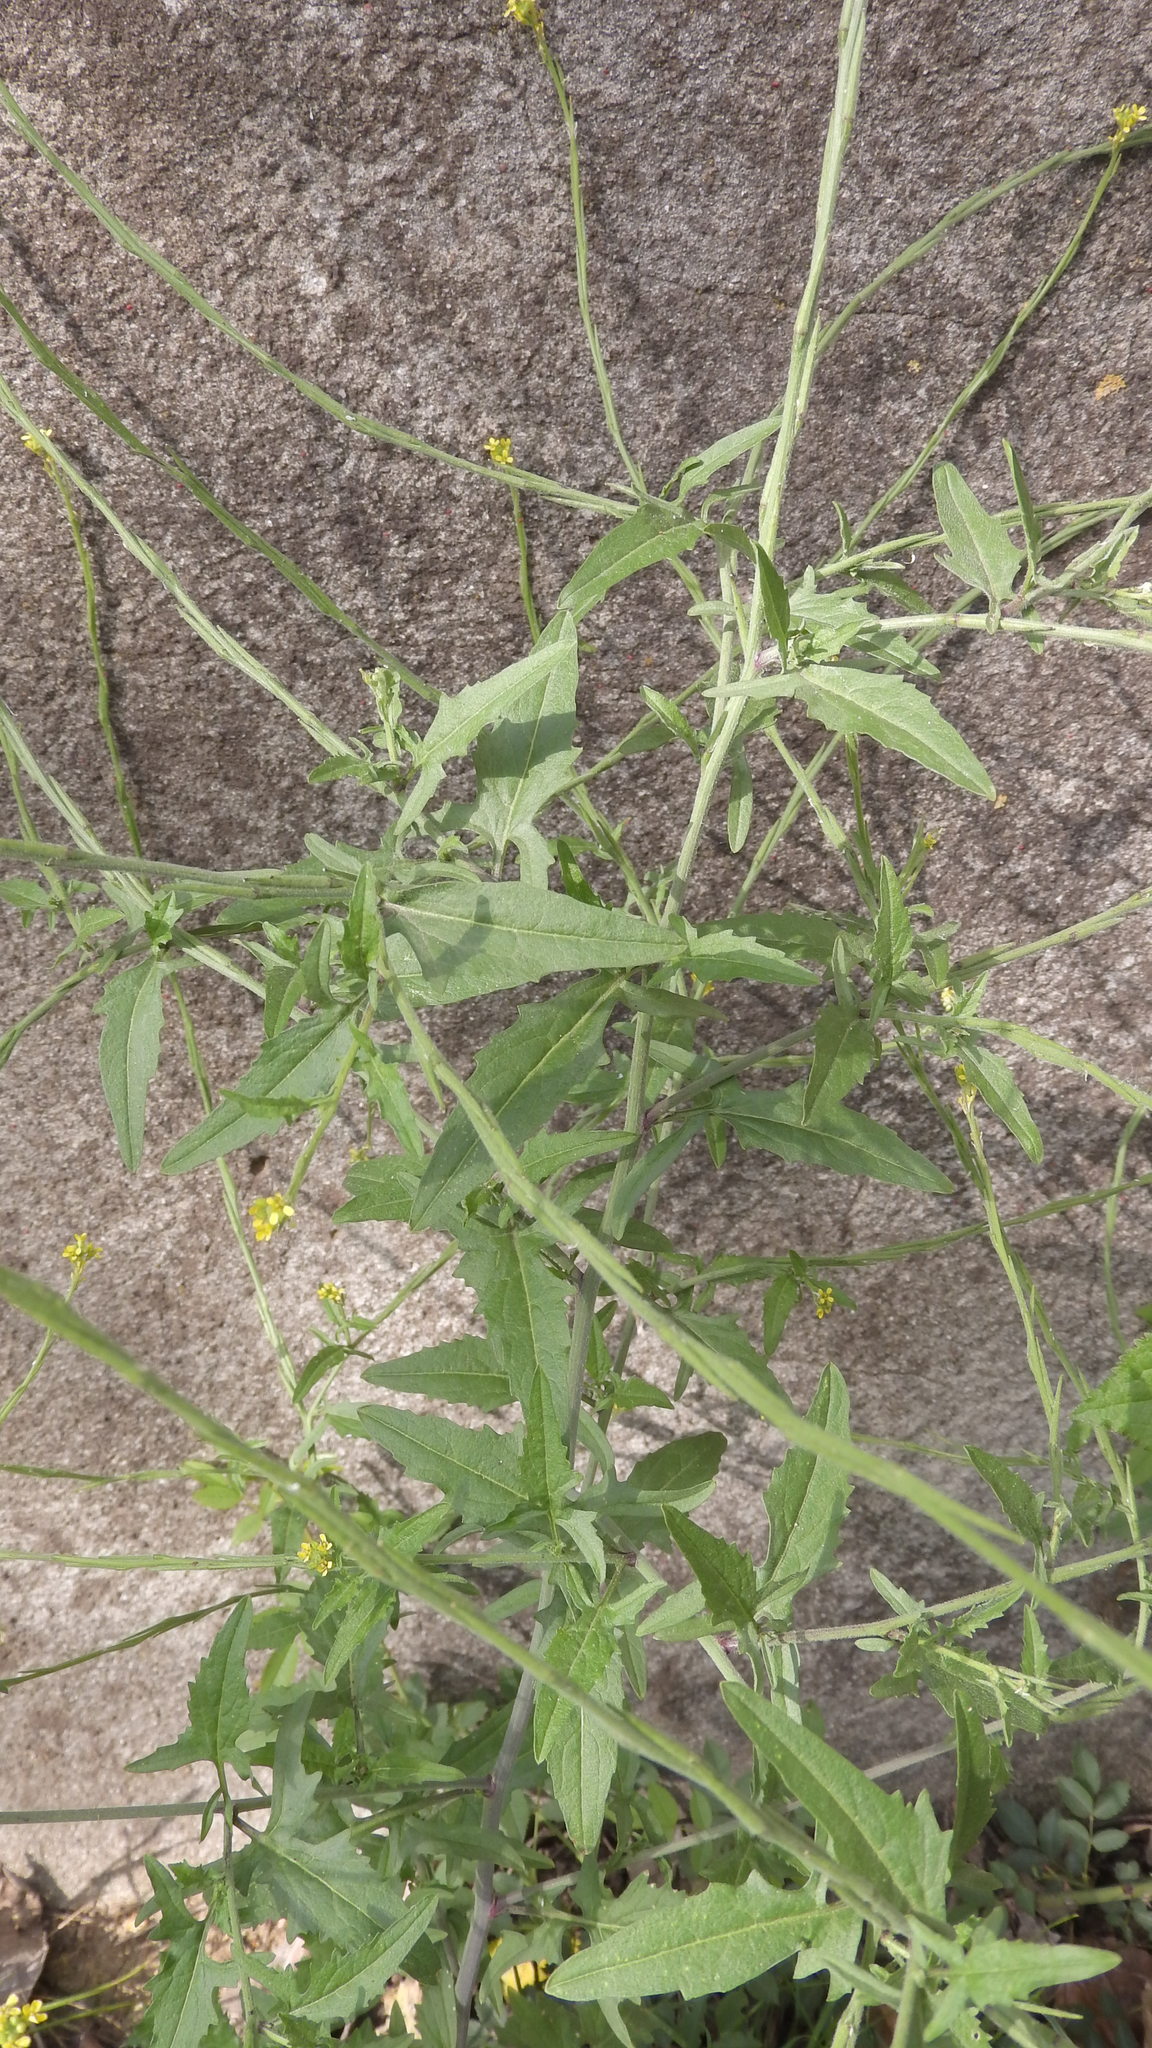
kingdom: Plantae
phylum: Tracheophyta
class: Magnoliopsida
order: Brassicales
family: Brassicaceae
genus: Sisymbrium
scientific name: Sisymbrium officinale
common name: Hedge mustard
